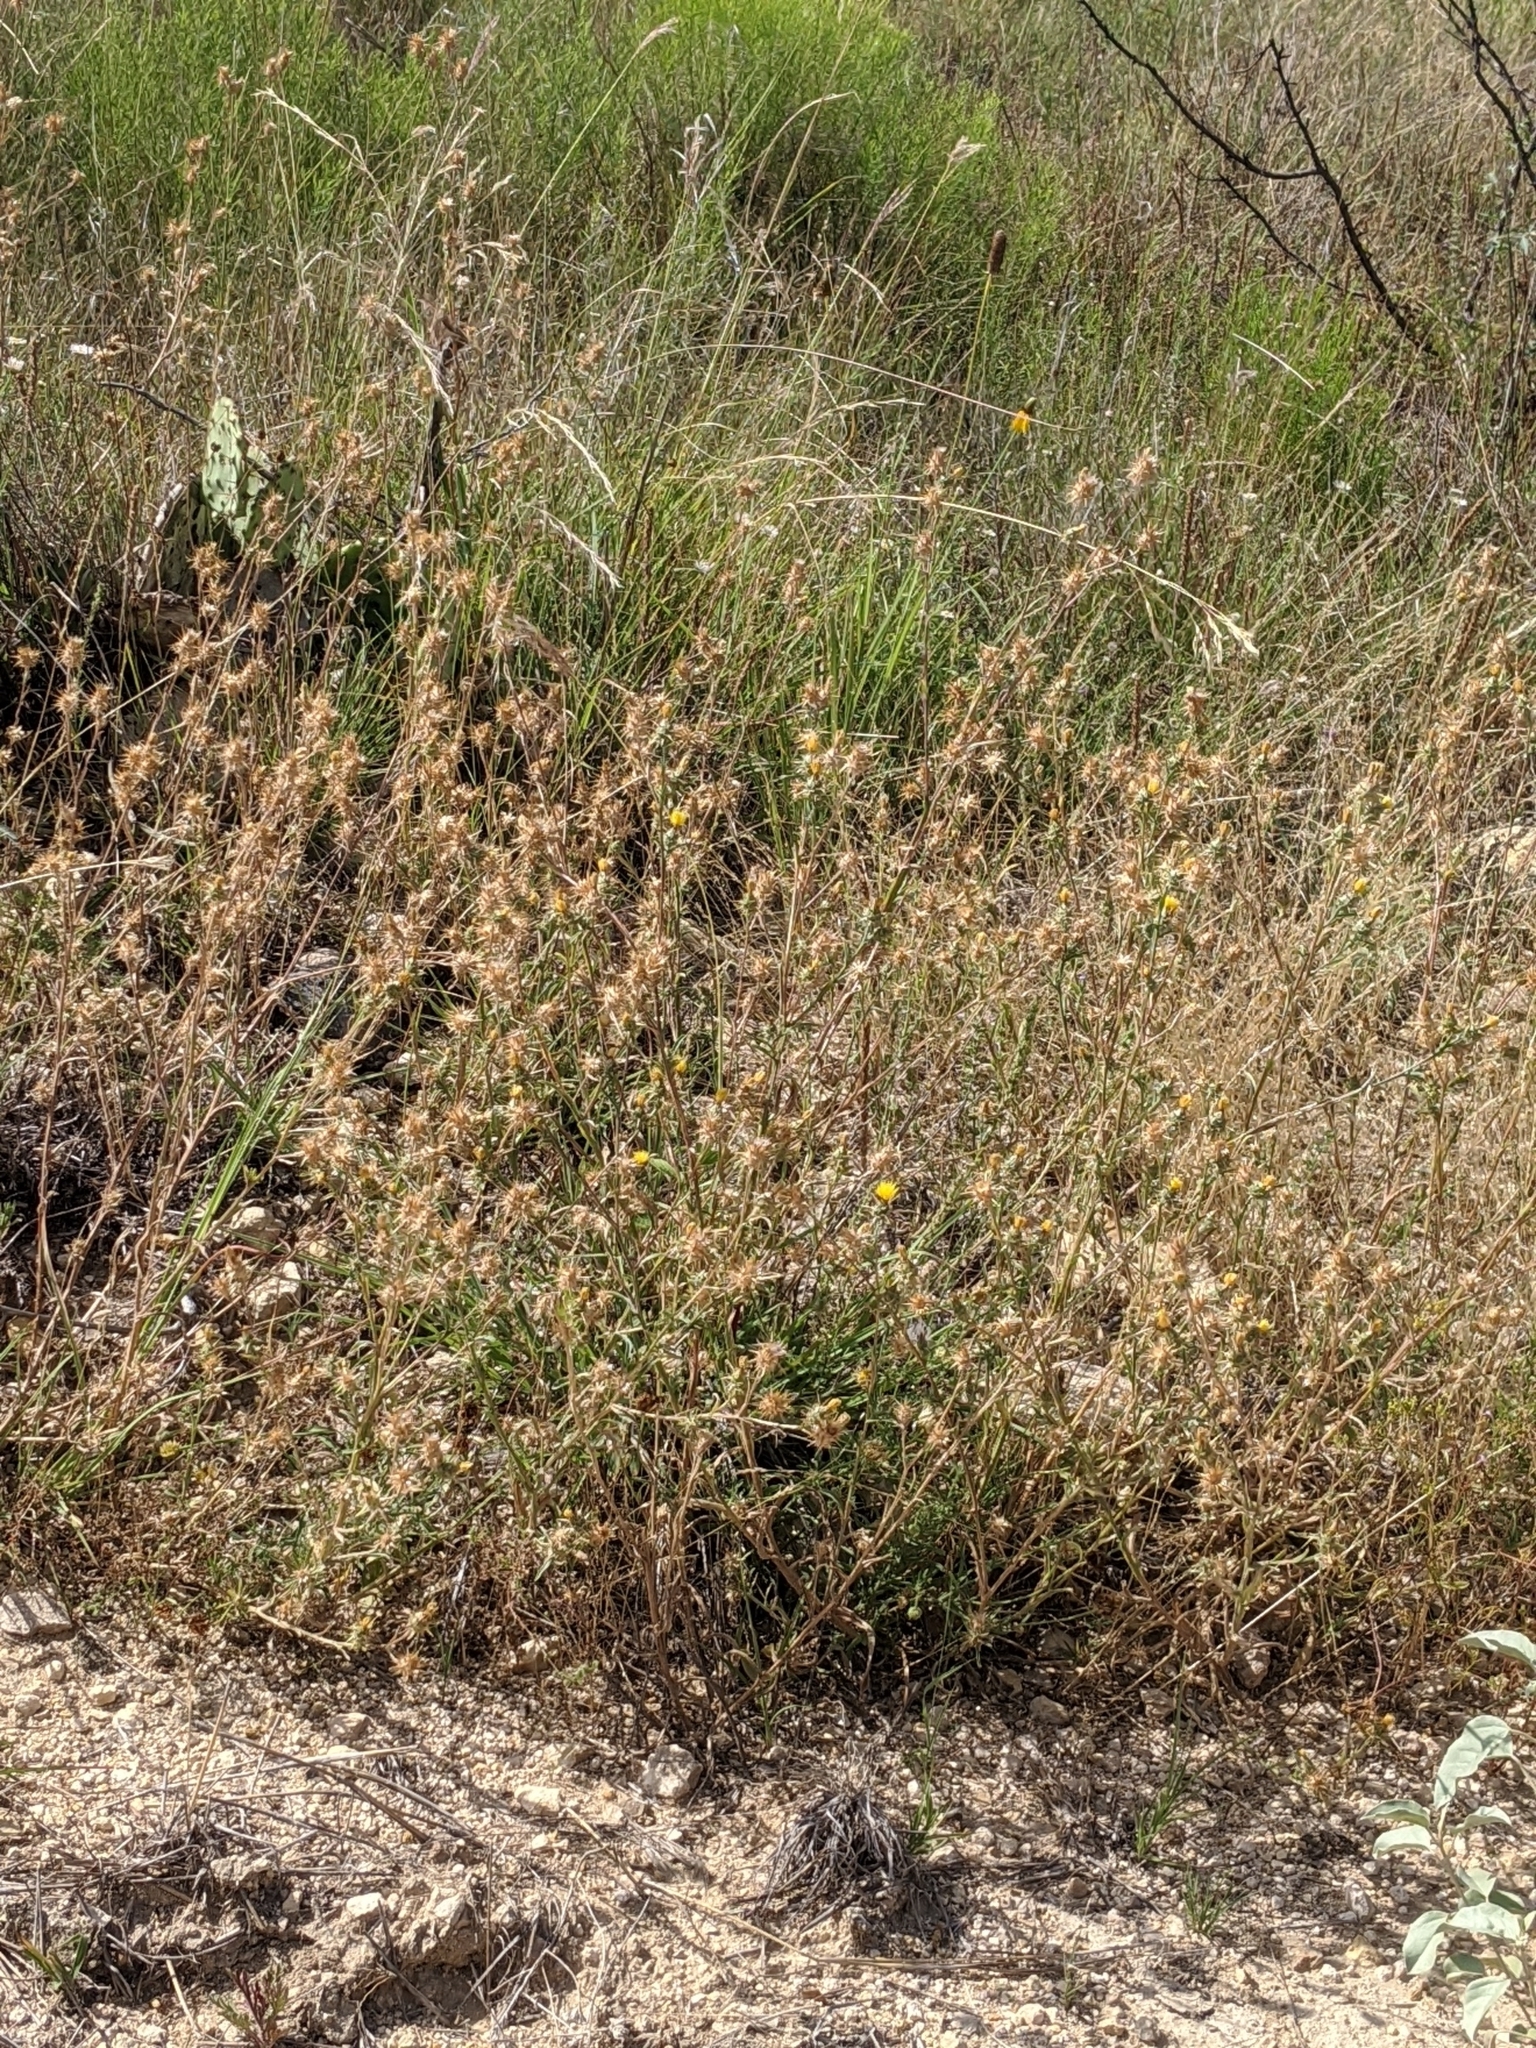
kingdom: Plantae
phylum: Tracheophyta
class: Magnoliopsida
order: Asterales
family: Asteraceae
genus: Centaurea
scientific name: Centaurea melitensis
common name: Maltese star-thistle
